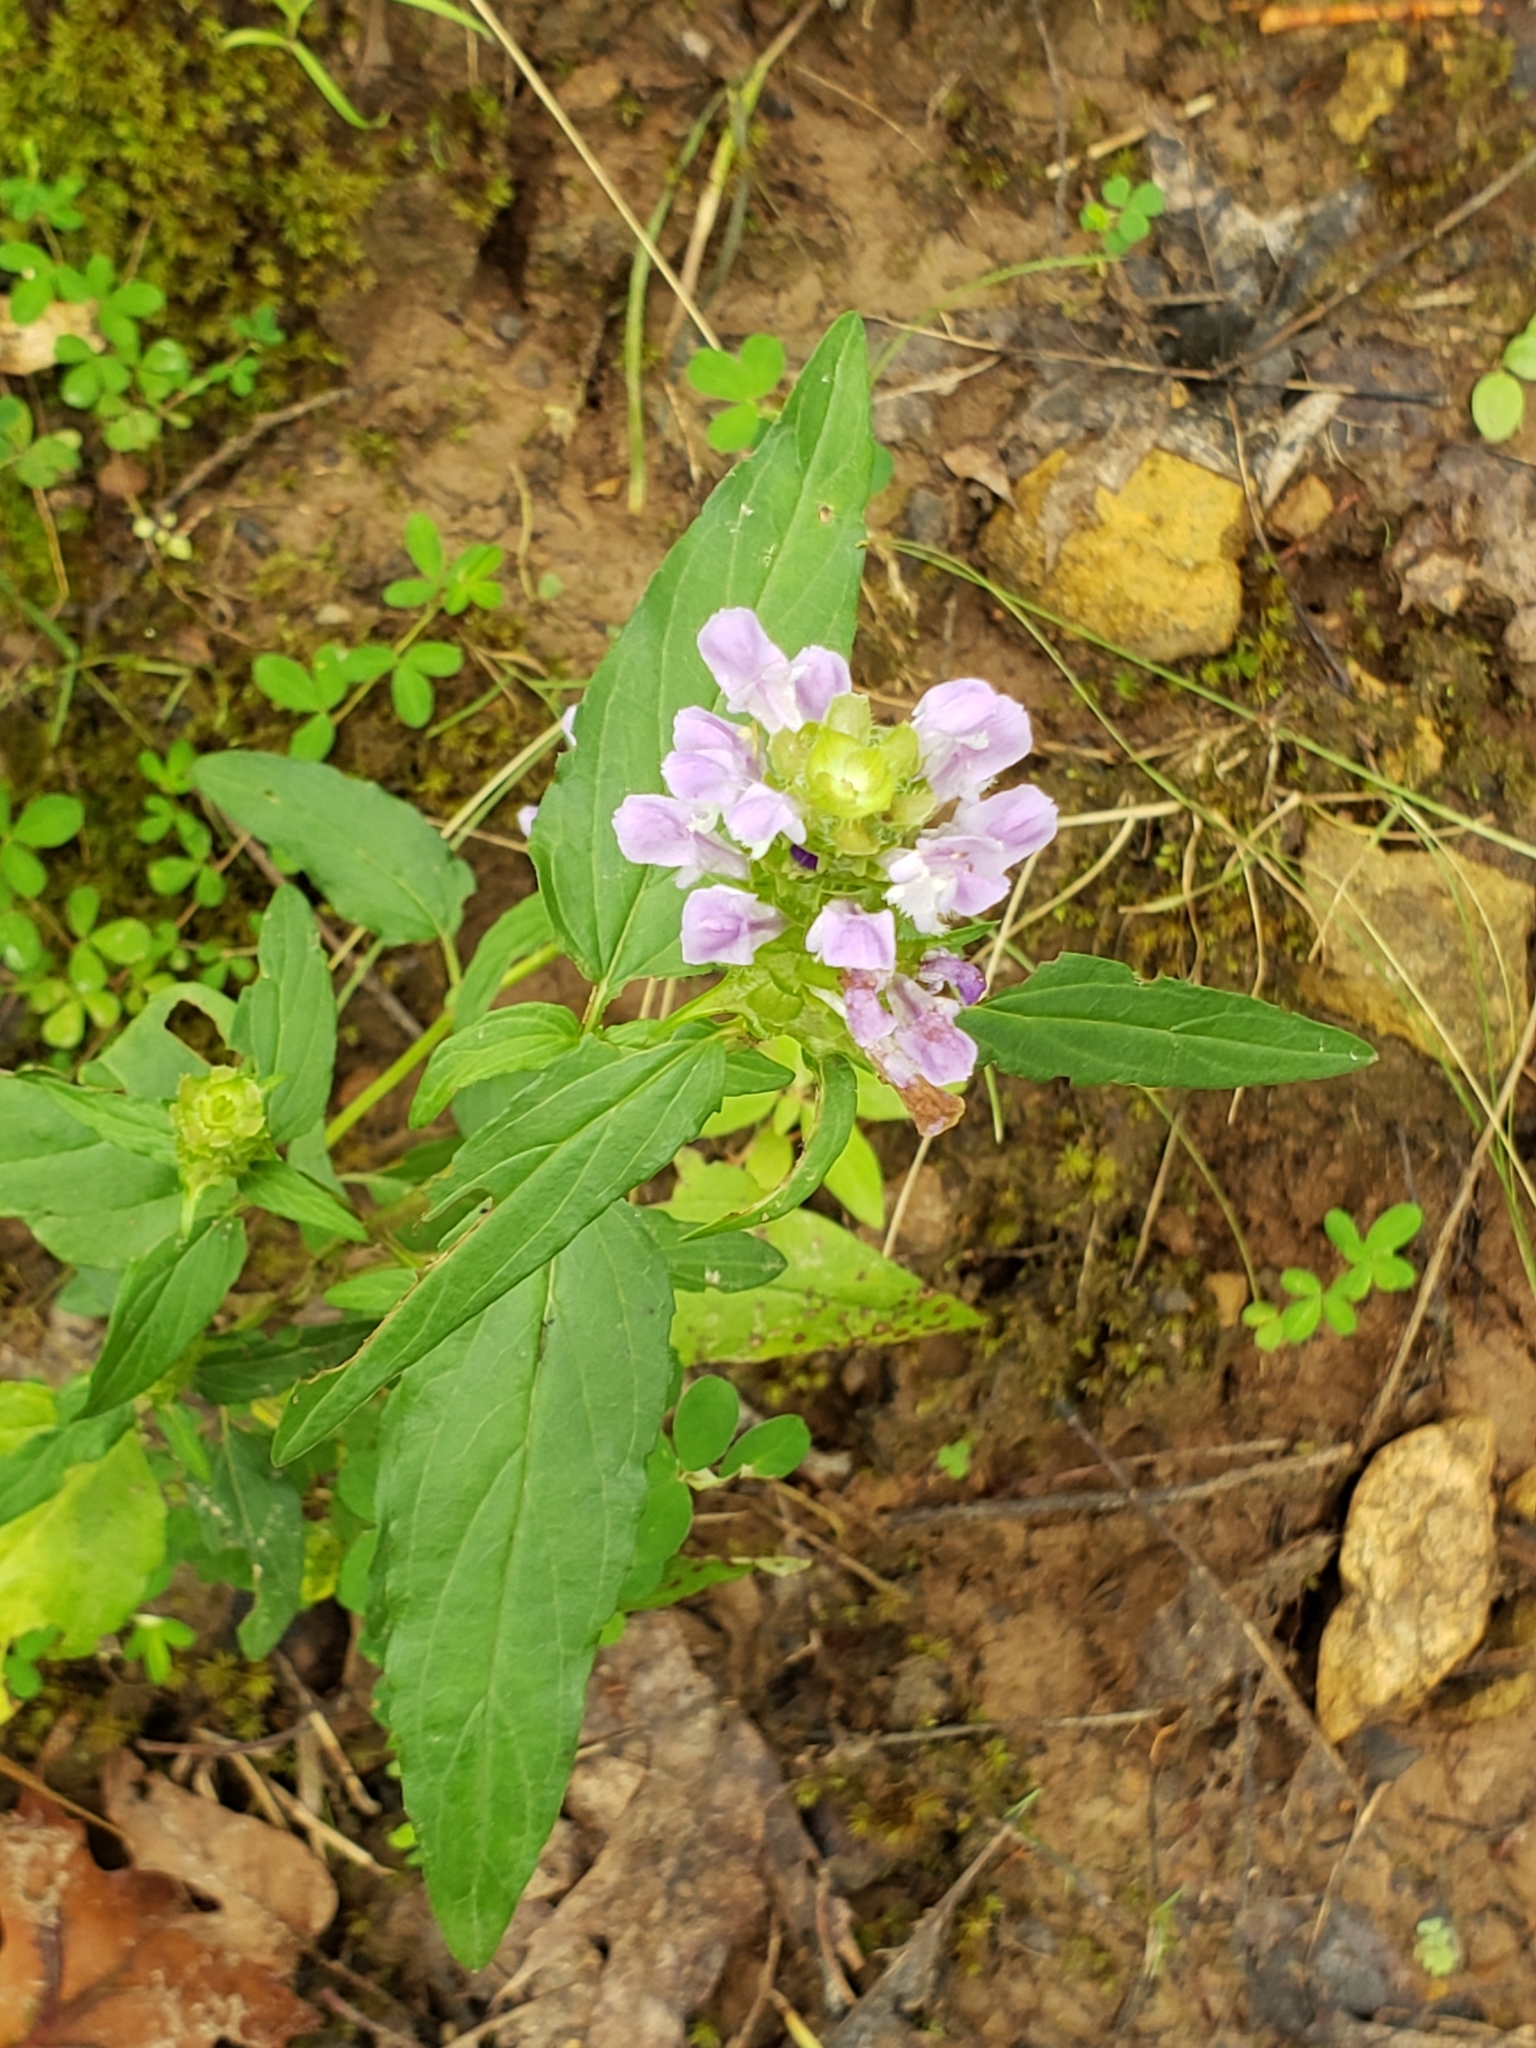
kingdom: Plantae
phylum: Tracheophyta
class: Magnoliopsida
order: Lamiales
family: Lamiaceae
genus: Prunella
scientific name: Prunella vulgaris
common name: Heal-all
